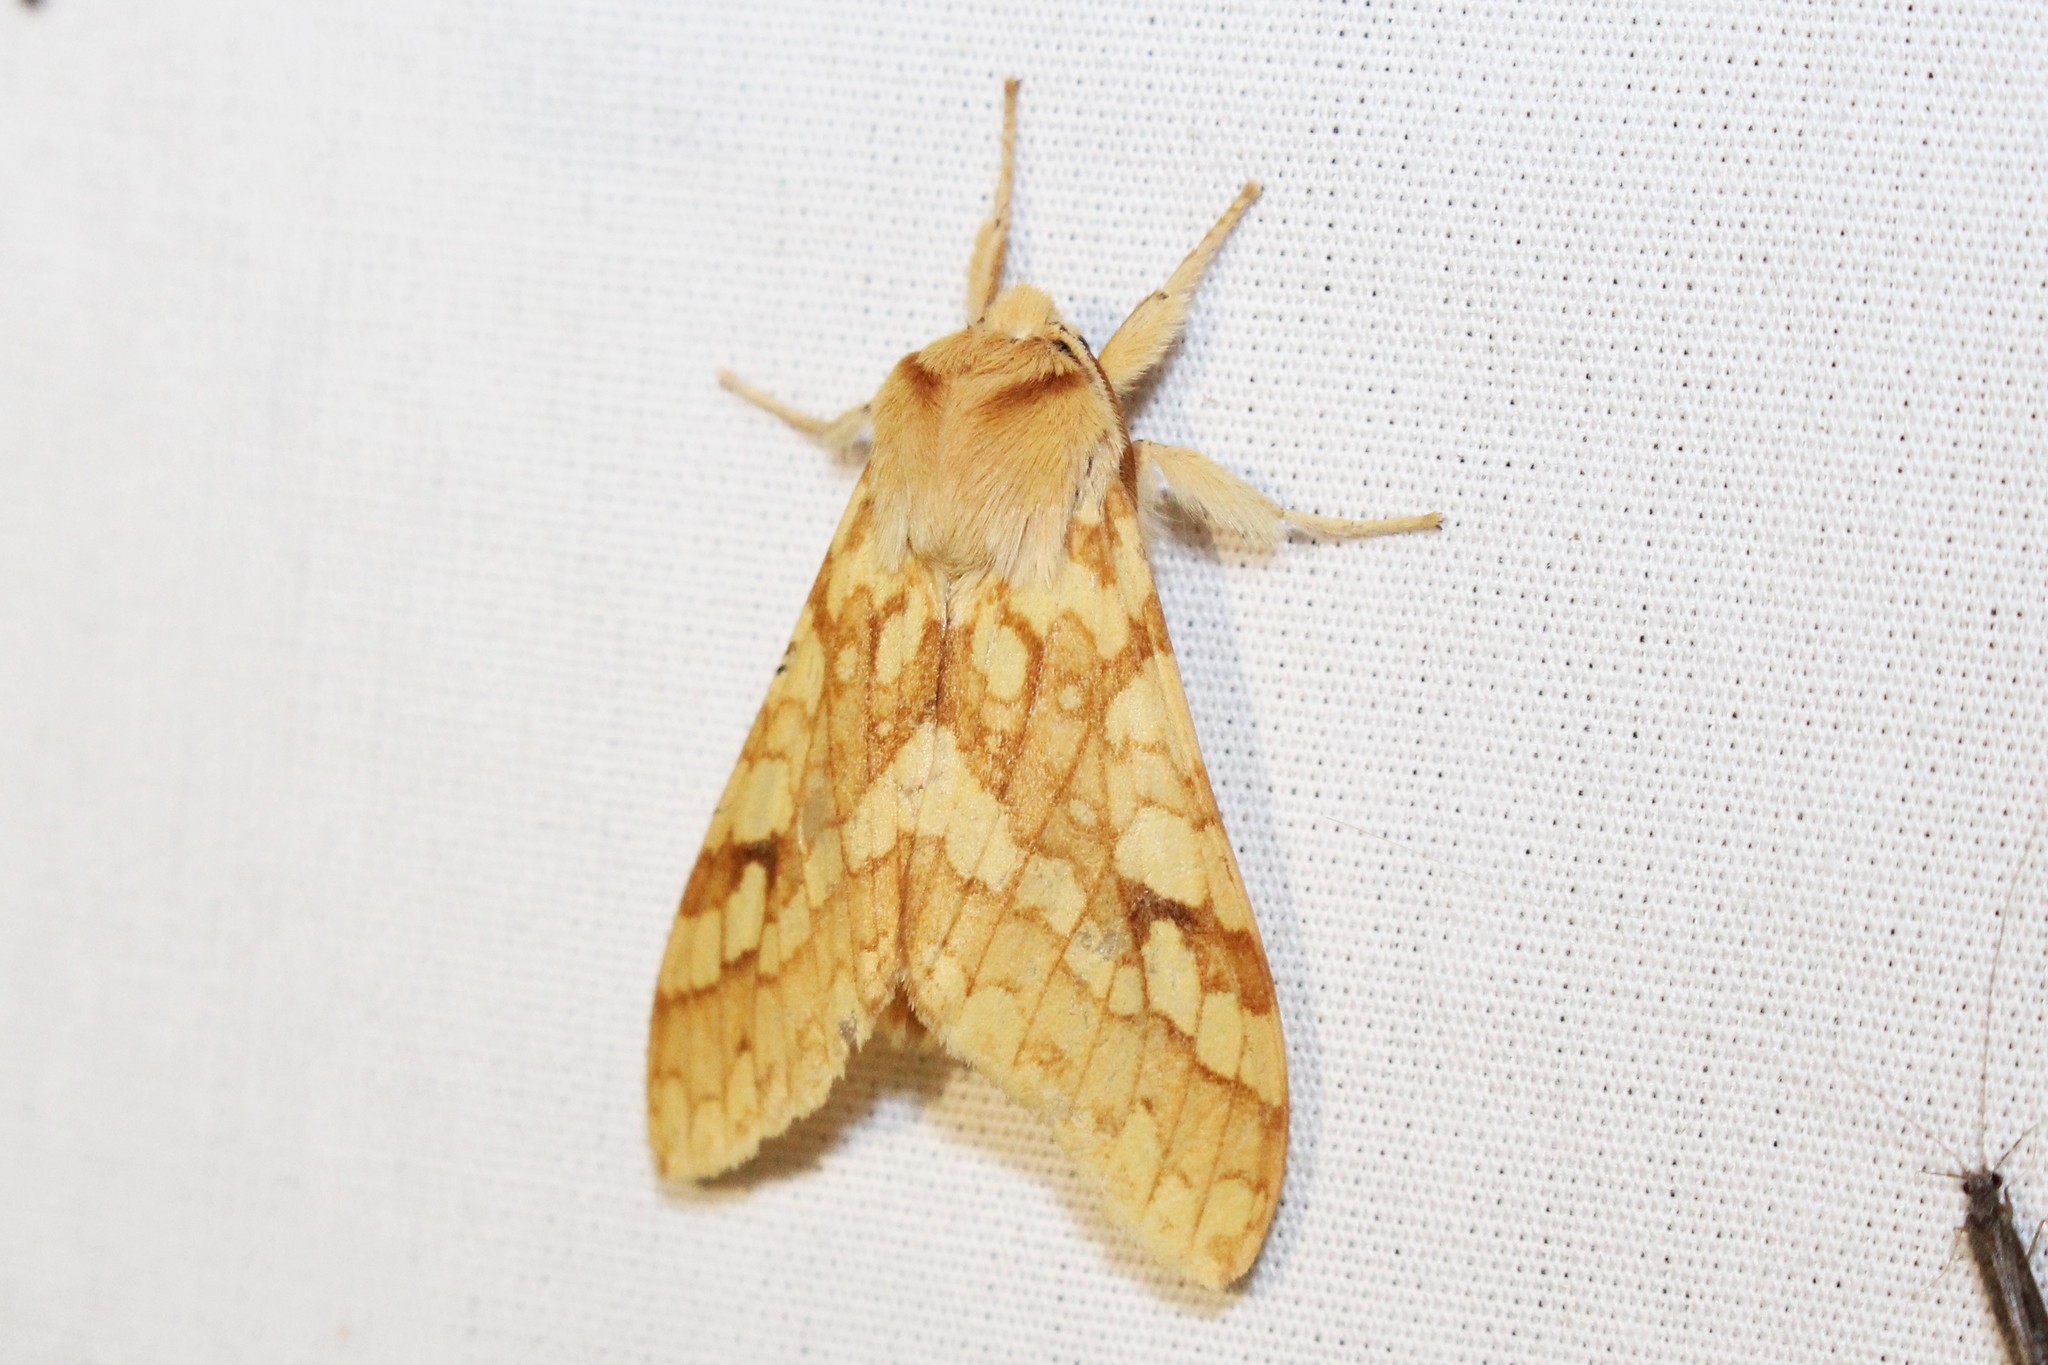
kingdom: Animalia
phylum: Arthropoda
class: Insecta
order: Lepidoptera
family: Erebidae
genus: Lophocampa
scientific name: Lophocampa maculata
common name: Spotted tussock moth
